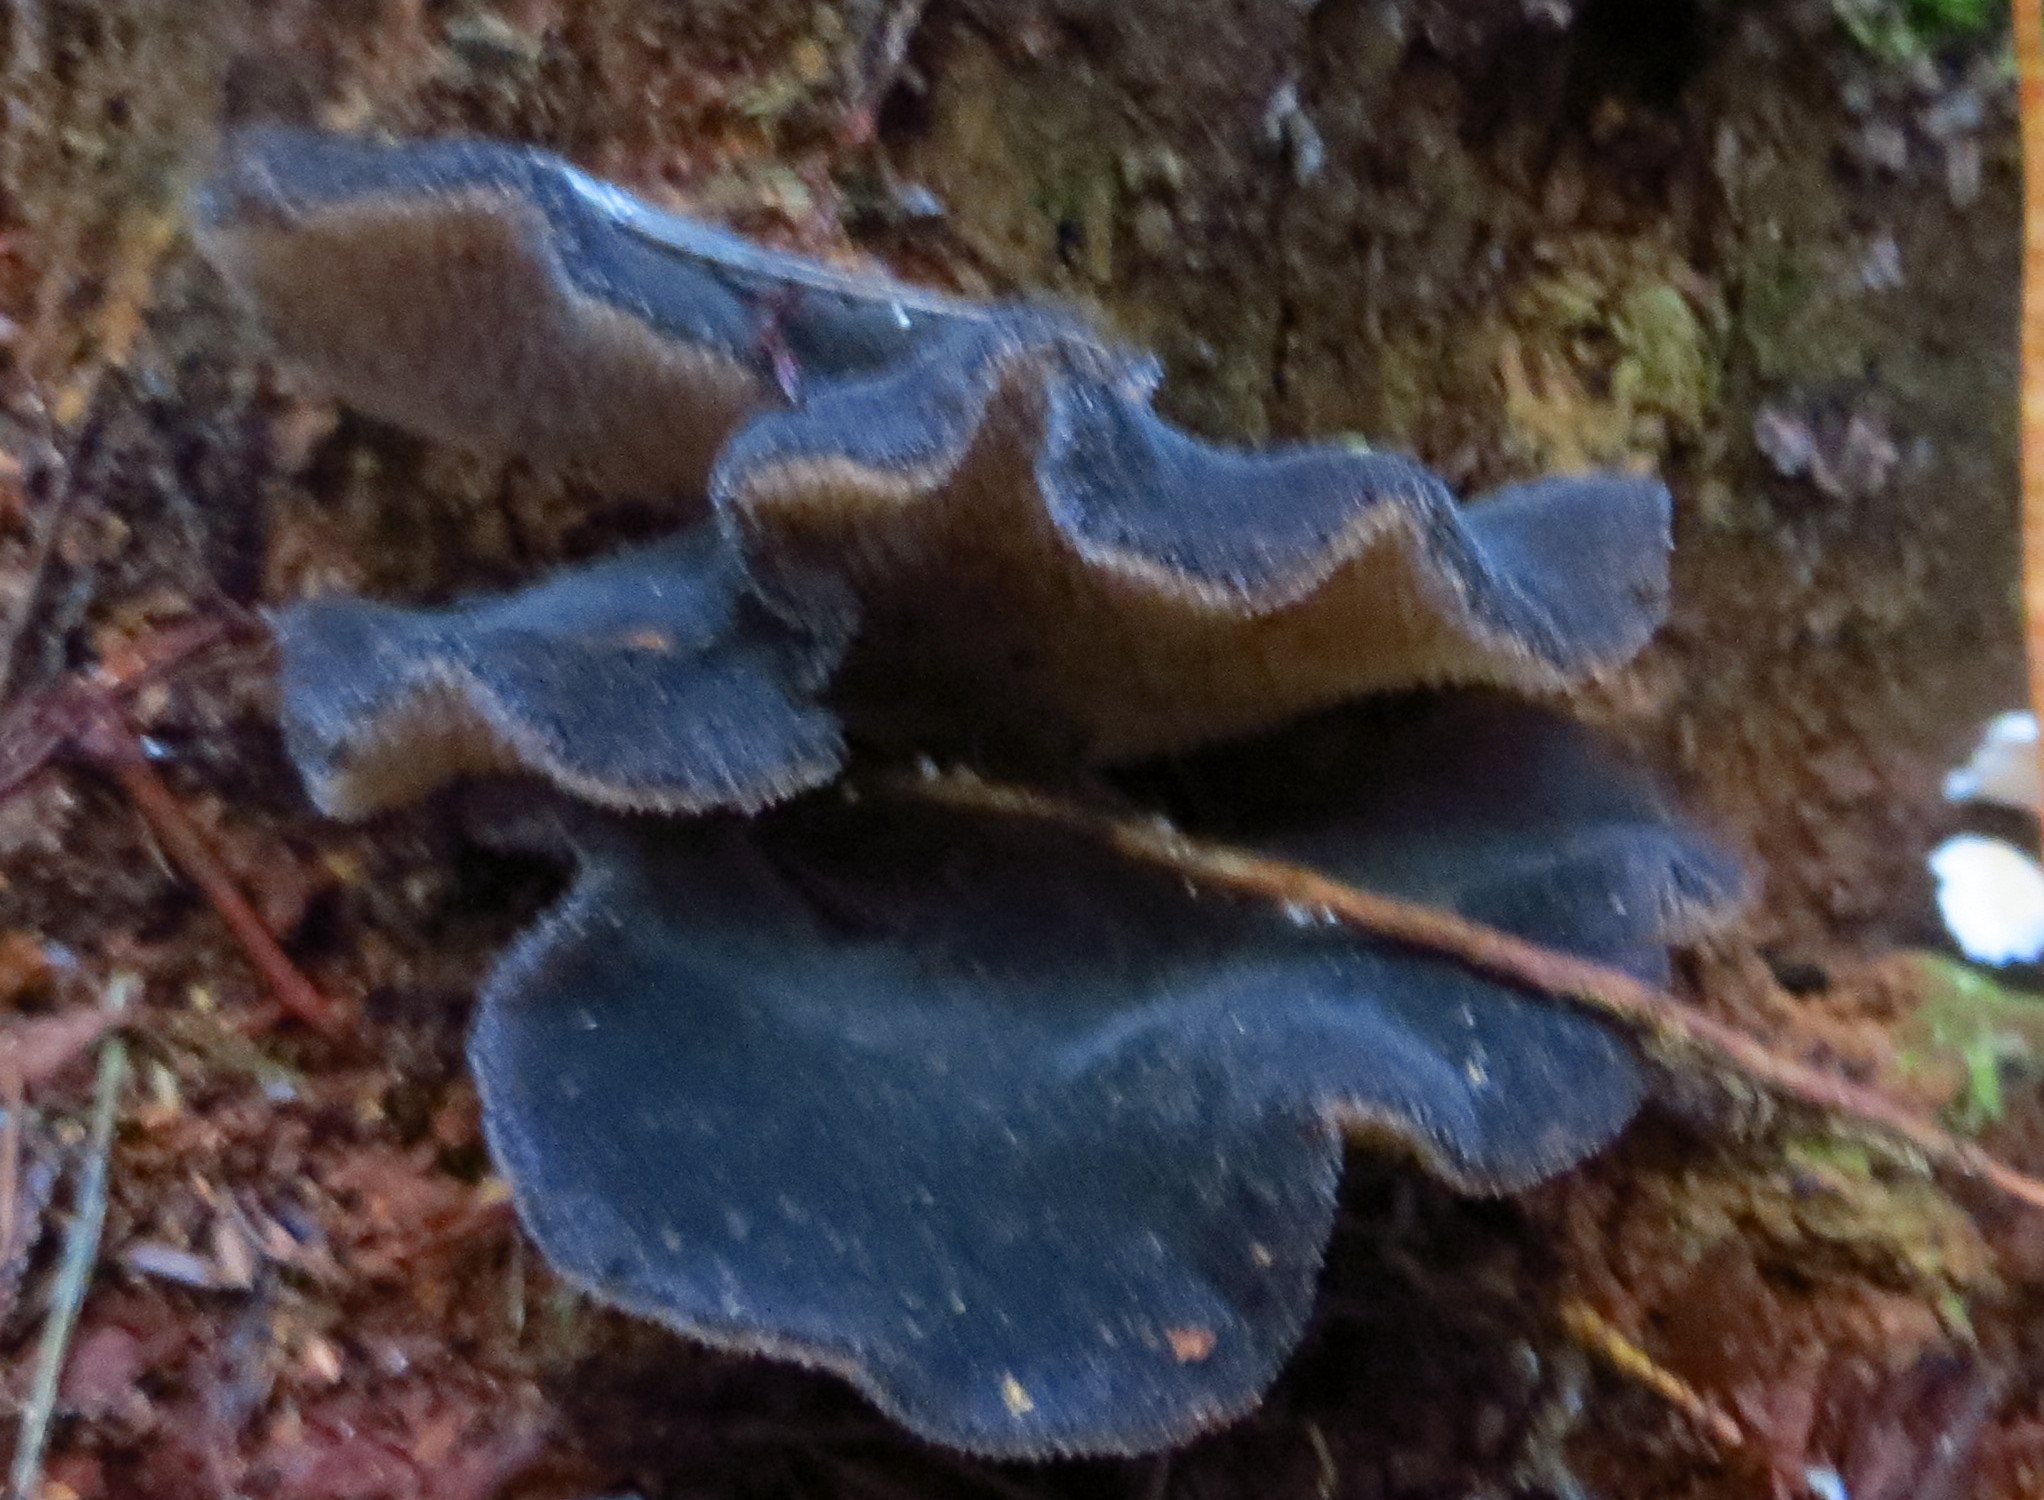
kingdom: Fungi
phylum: Basidiomycota
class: Agaricomycetes
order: Auriculariales
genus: Pseudohydnum
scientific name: Pseudohydnum orbiculare
